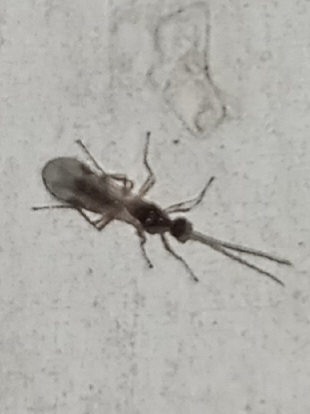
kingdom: Animalia
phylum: Arthropoda
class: Insecta
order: Hymenoptera
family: Formicidae
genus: Pachycondyla
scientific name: Pachycondyla chinensis
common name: Asian needle ant
